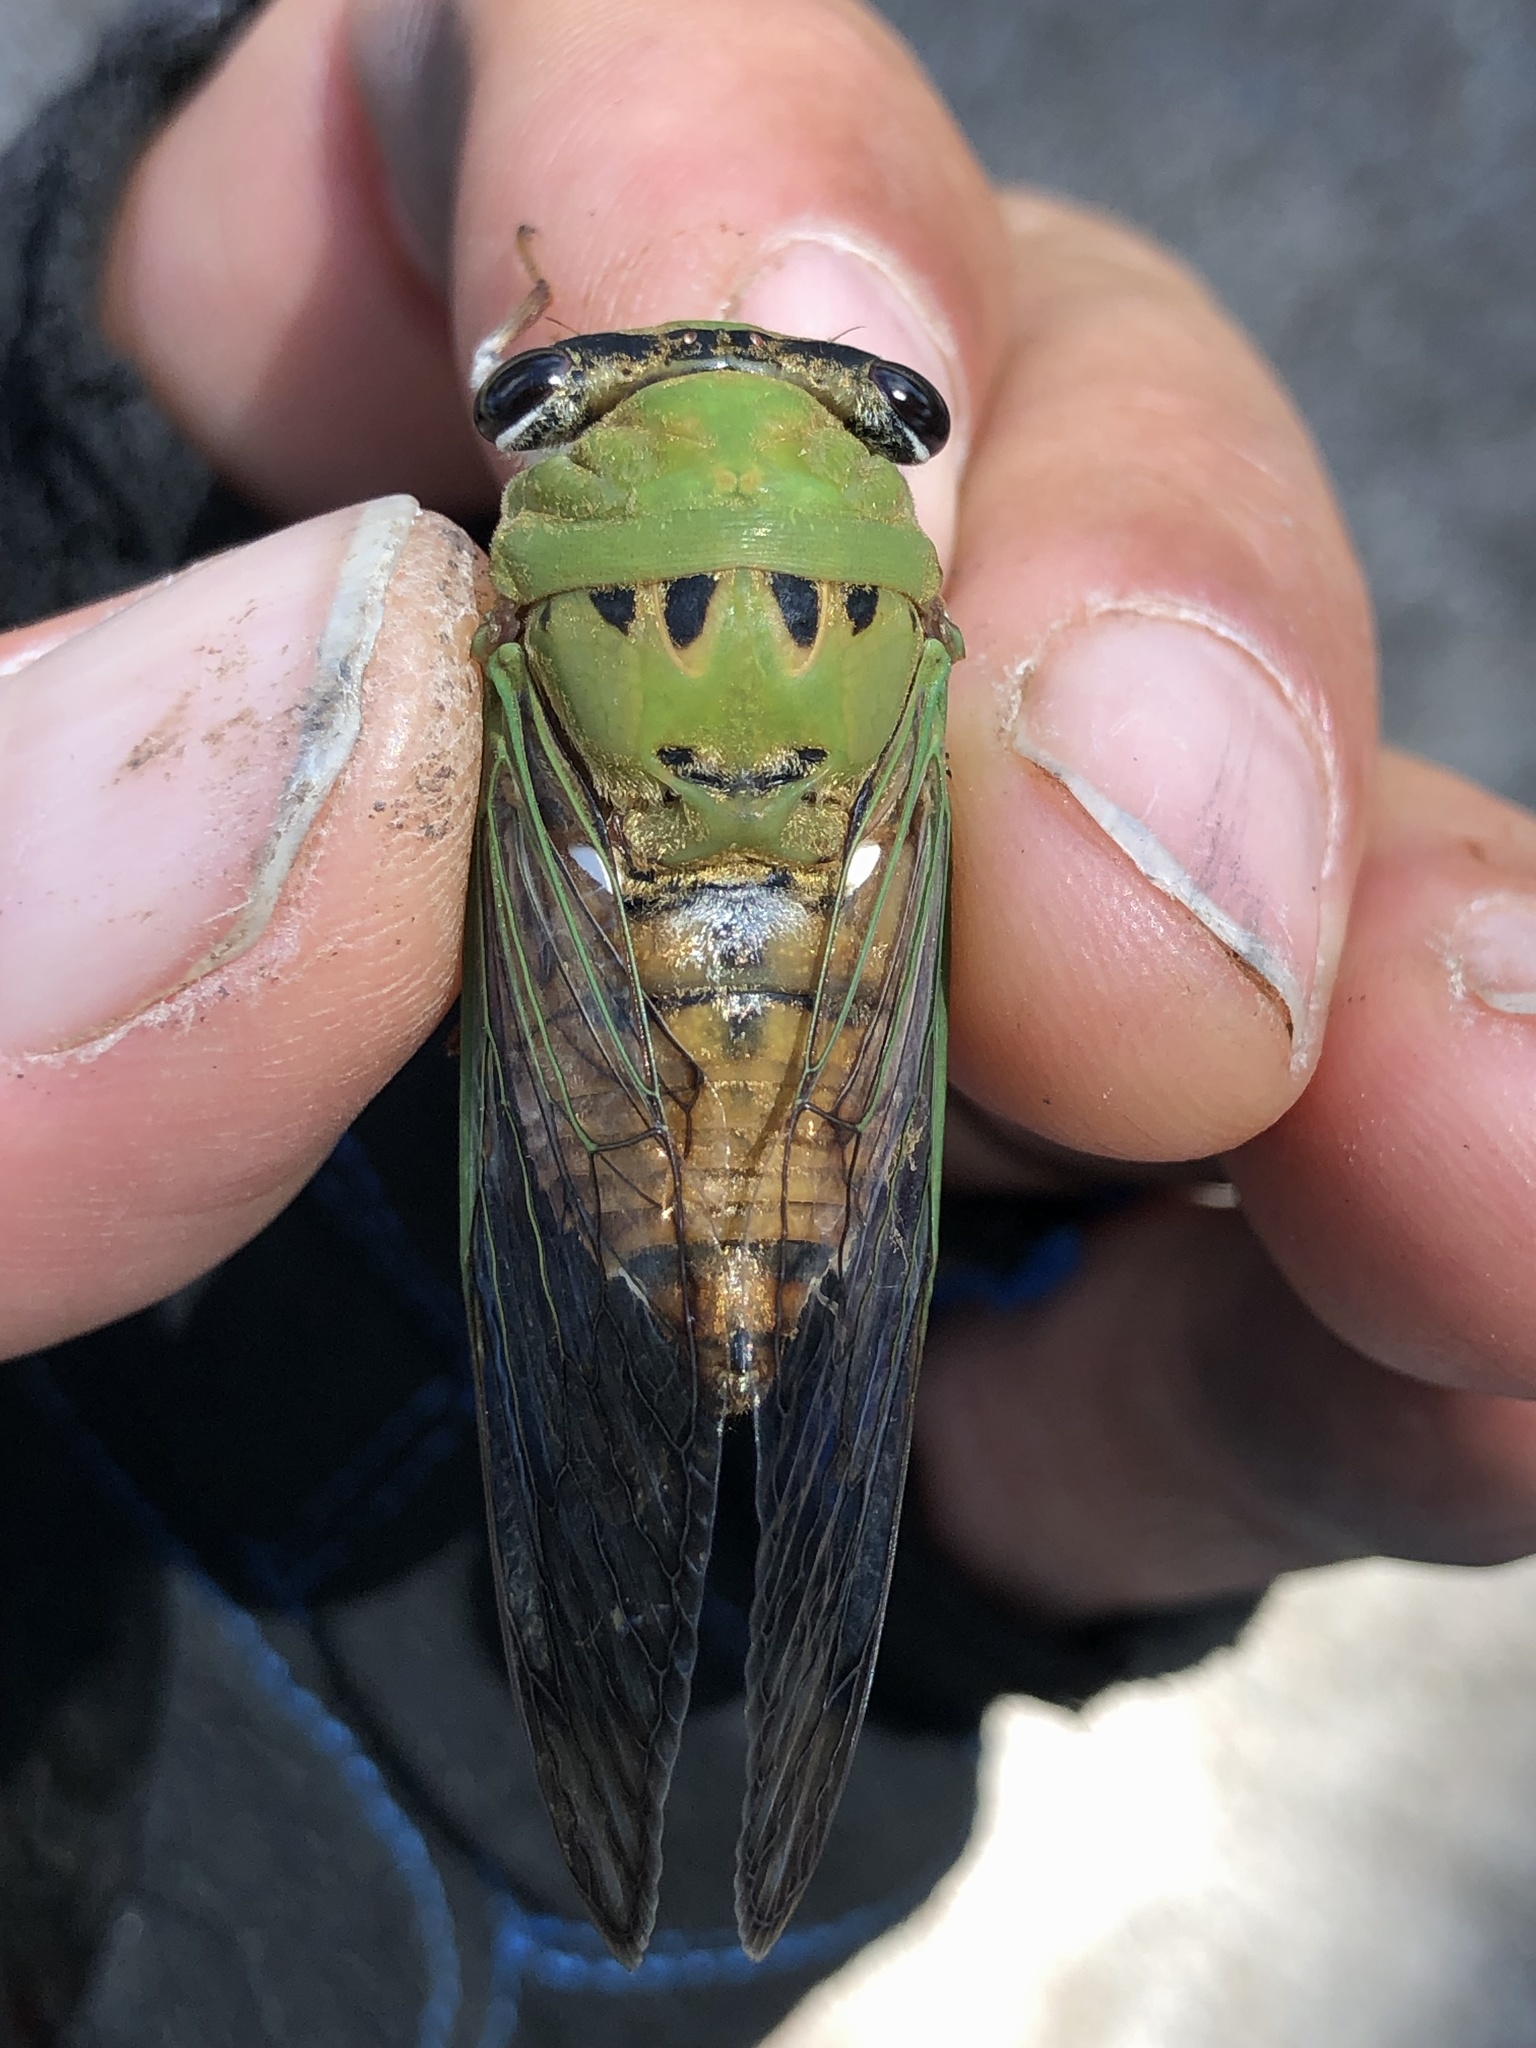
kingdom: Animalia
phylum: Arthropoda
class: Insecta
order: Hemiptera
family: Cicadidae
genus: Neotibicen
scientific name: Neotibicen superbus
